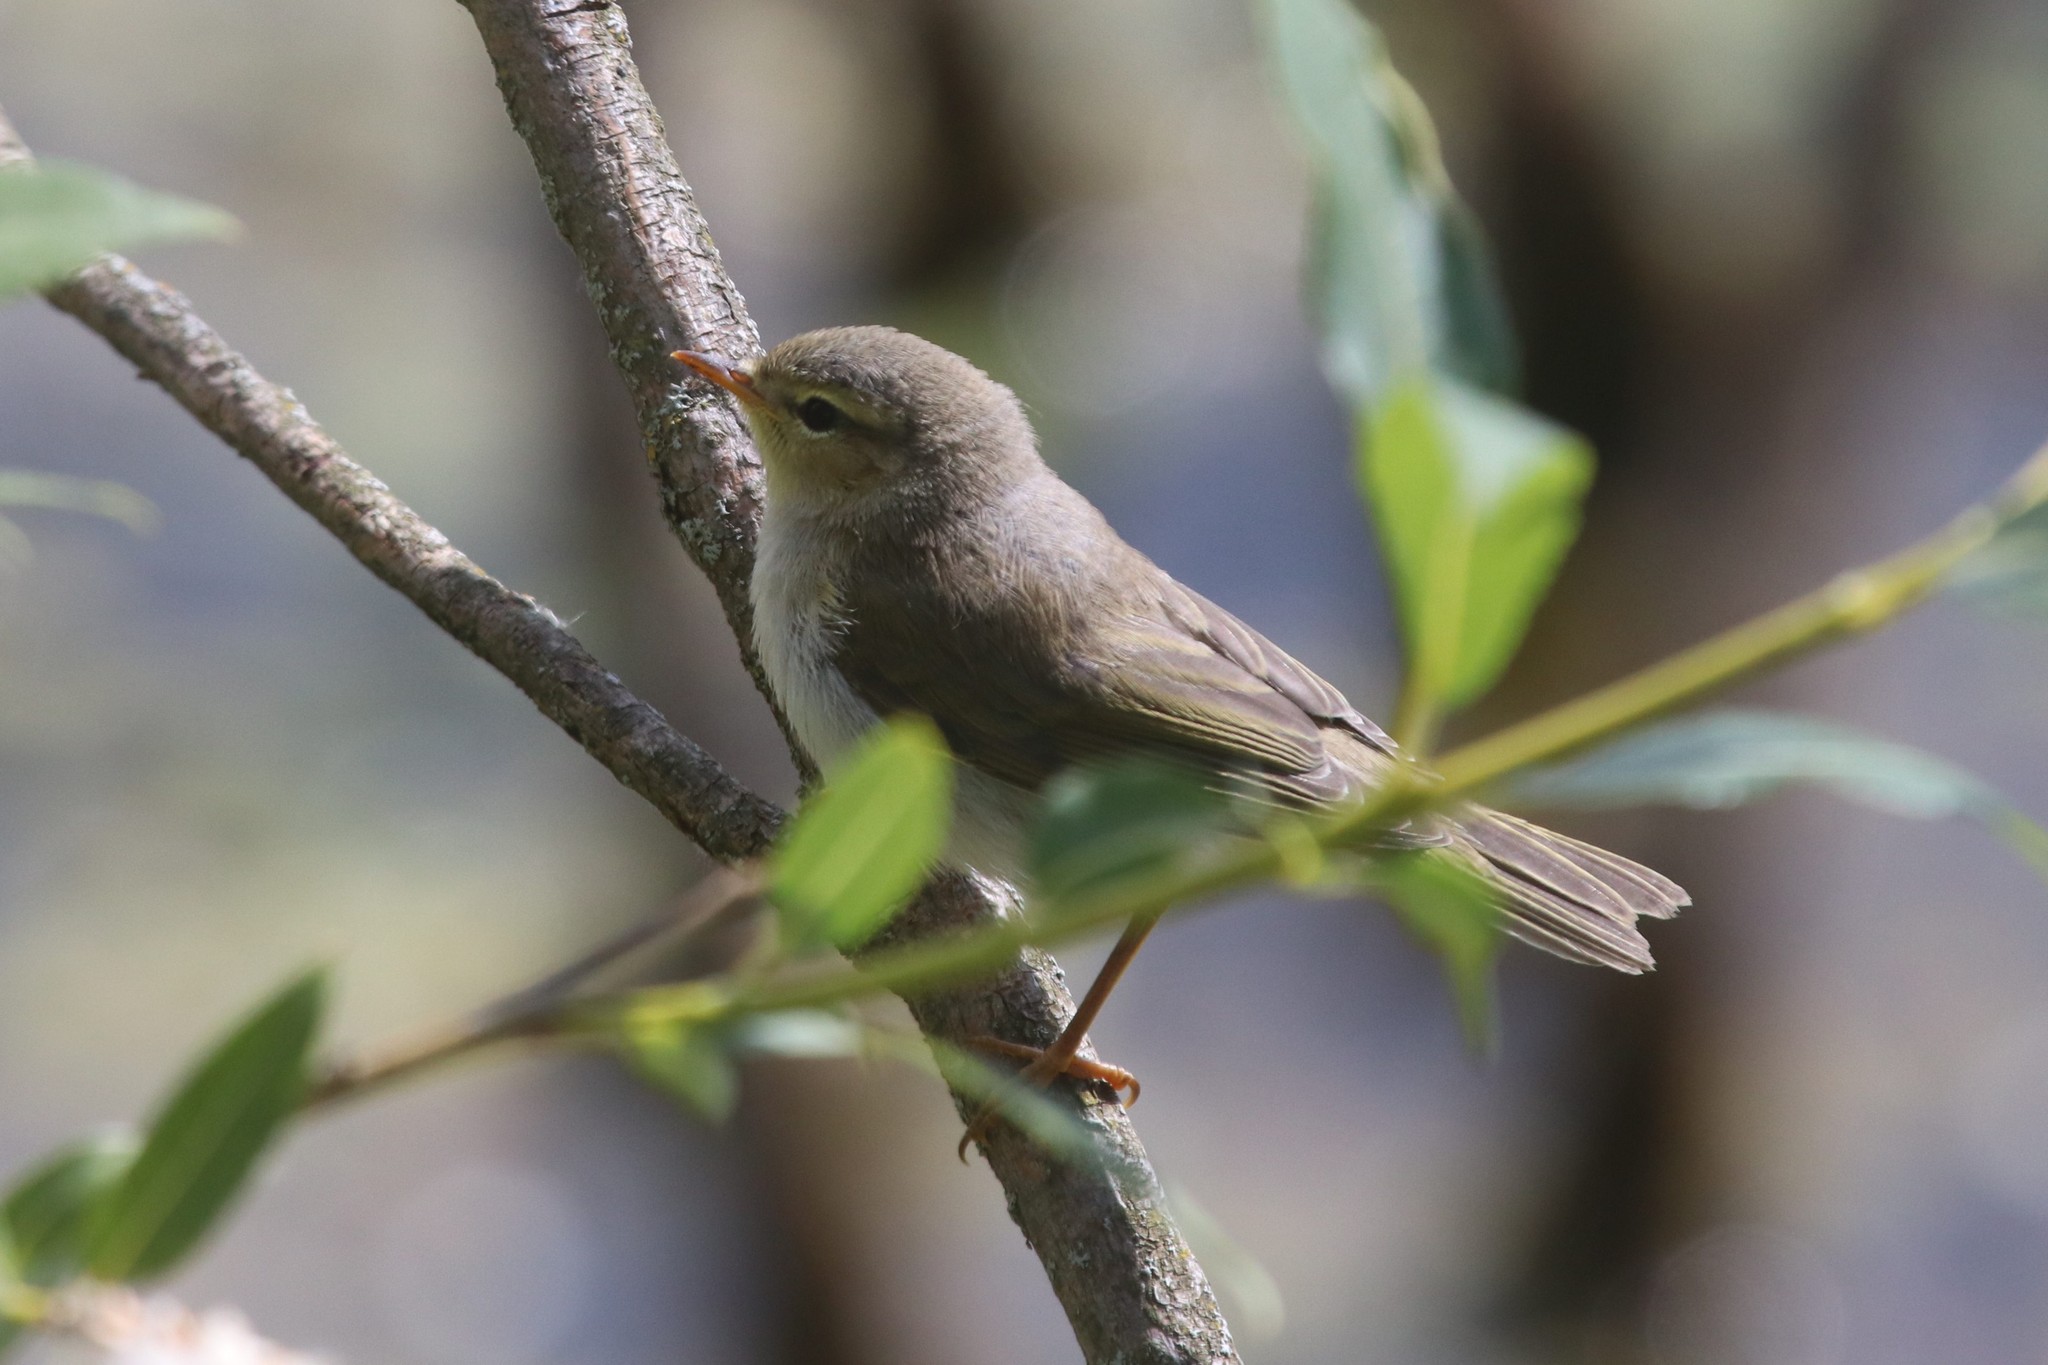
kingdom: Animalia
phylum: Chordata
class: Aves
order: Passeriformes
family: Phylloscopidae
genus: Phylloscopus
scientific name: Phylloscopus trochilus
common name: Willow warbler
